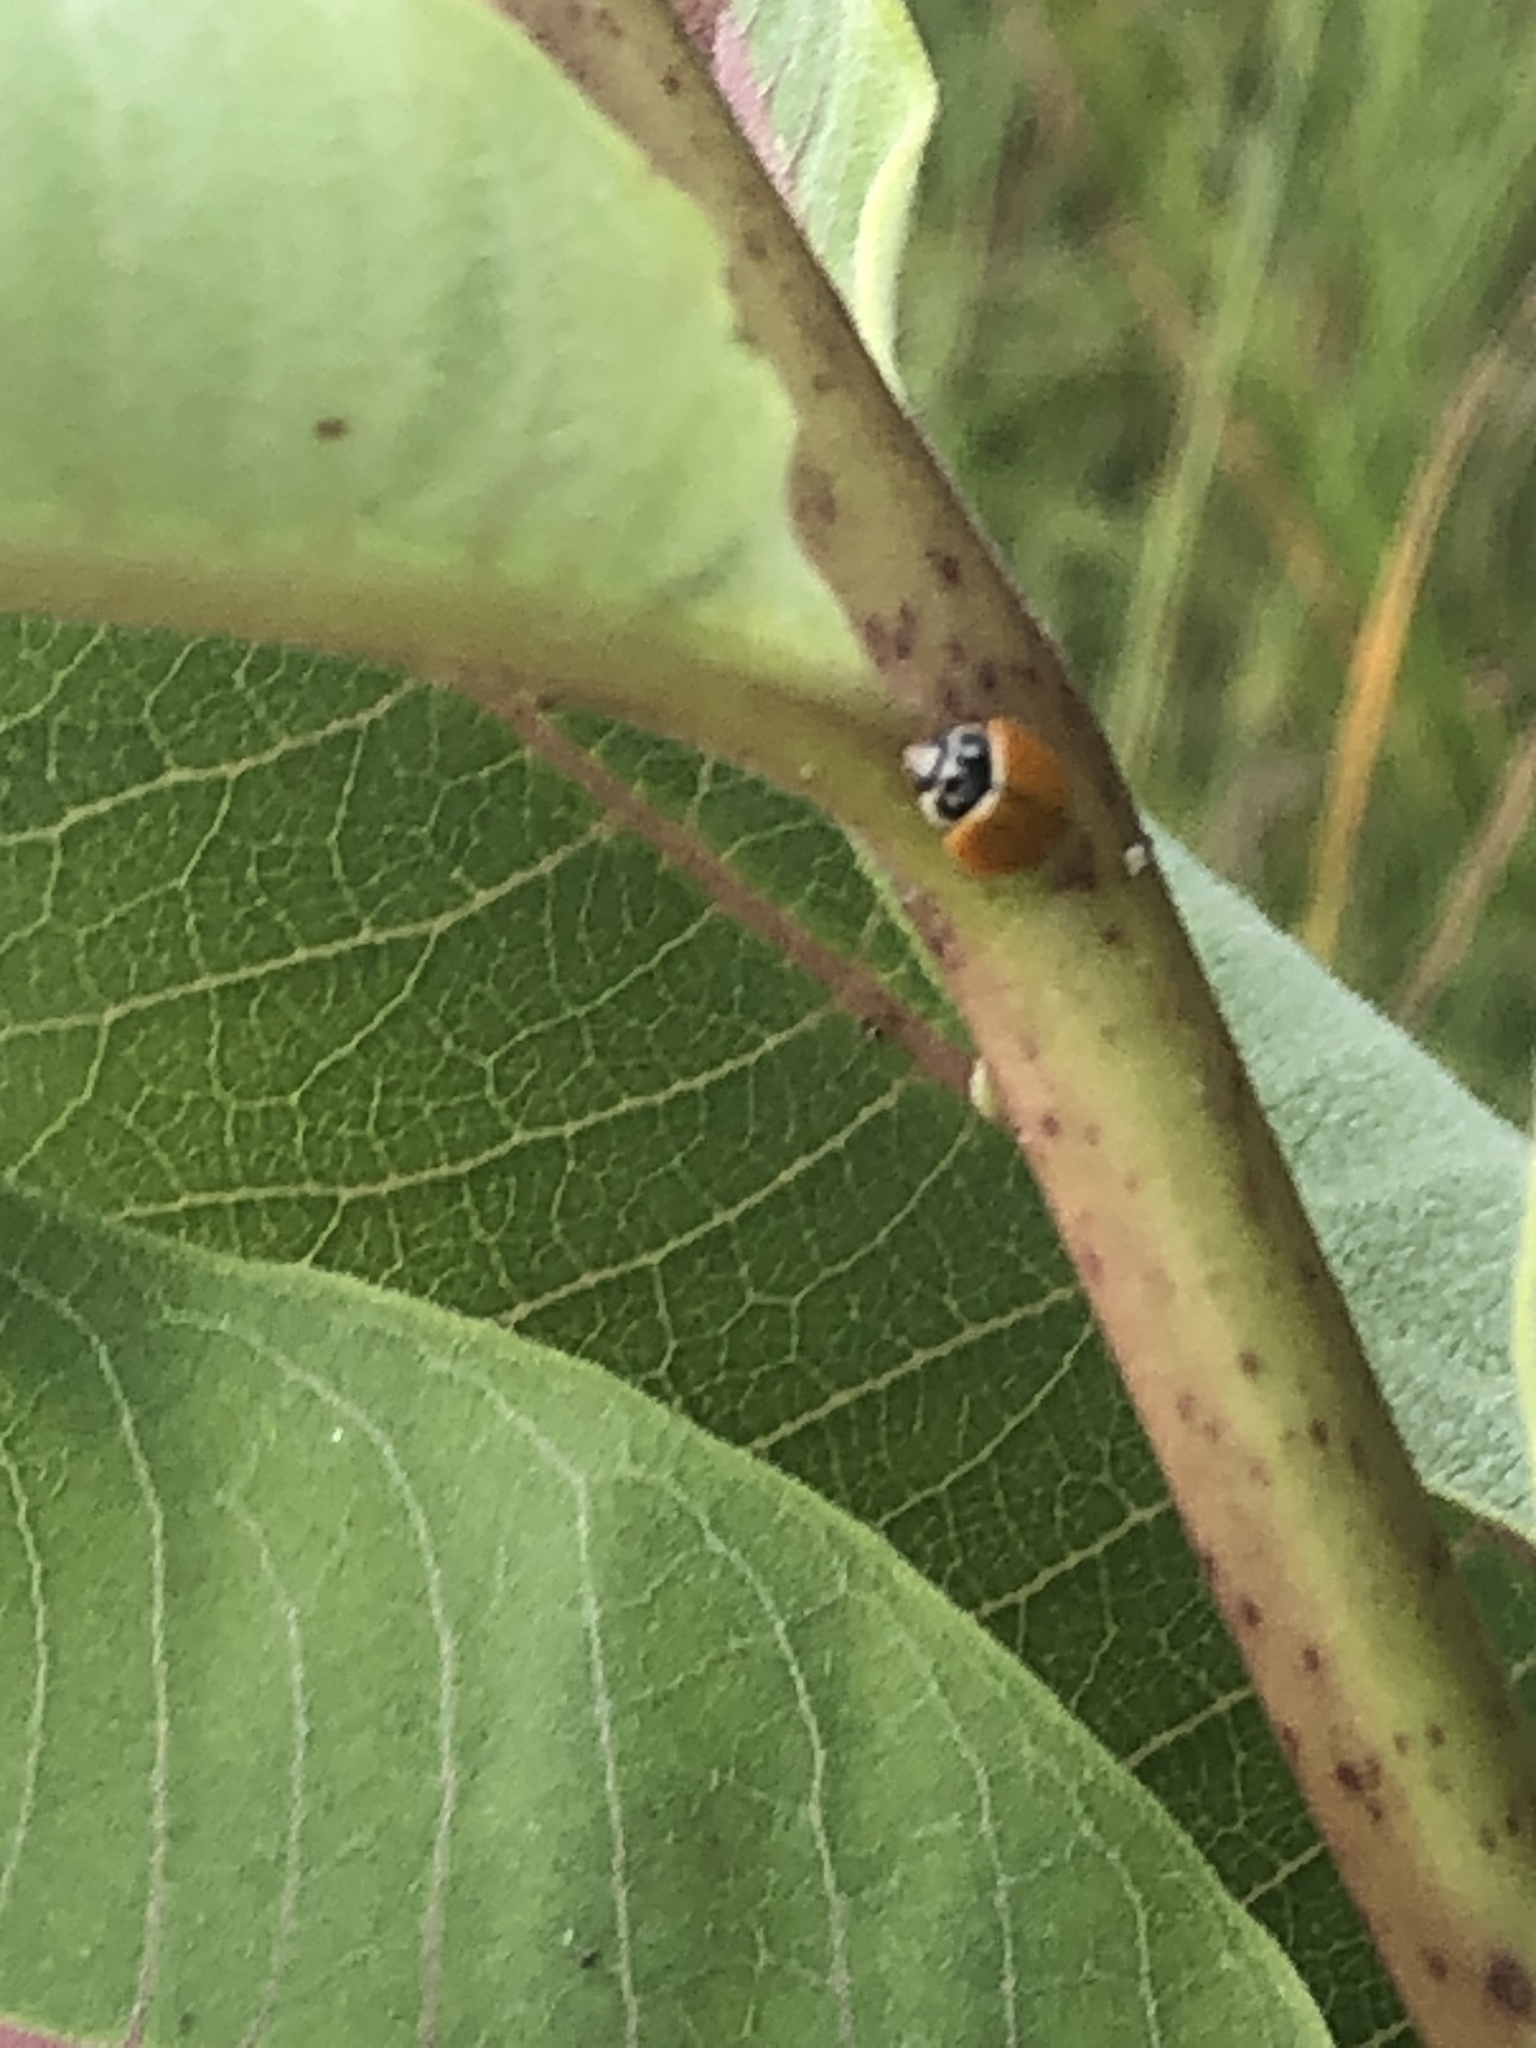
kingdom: Animalia
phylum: Arthropoda
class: Insecta
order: Coleoptera
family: Coccinellidae
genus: Cycloneda
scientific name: Cycloneda munda
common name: Polished lady beetle
